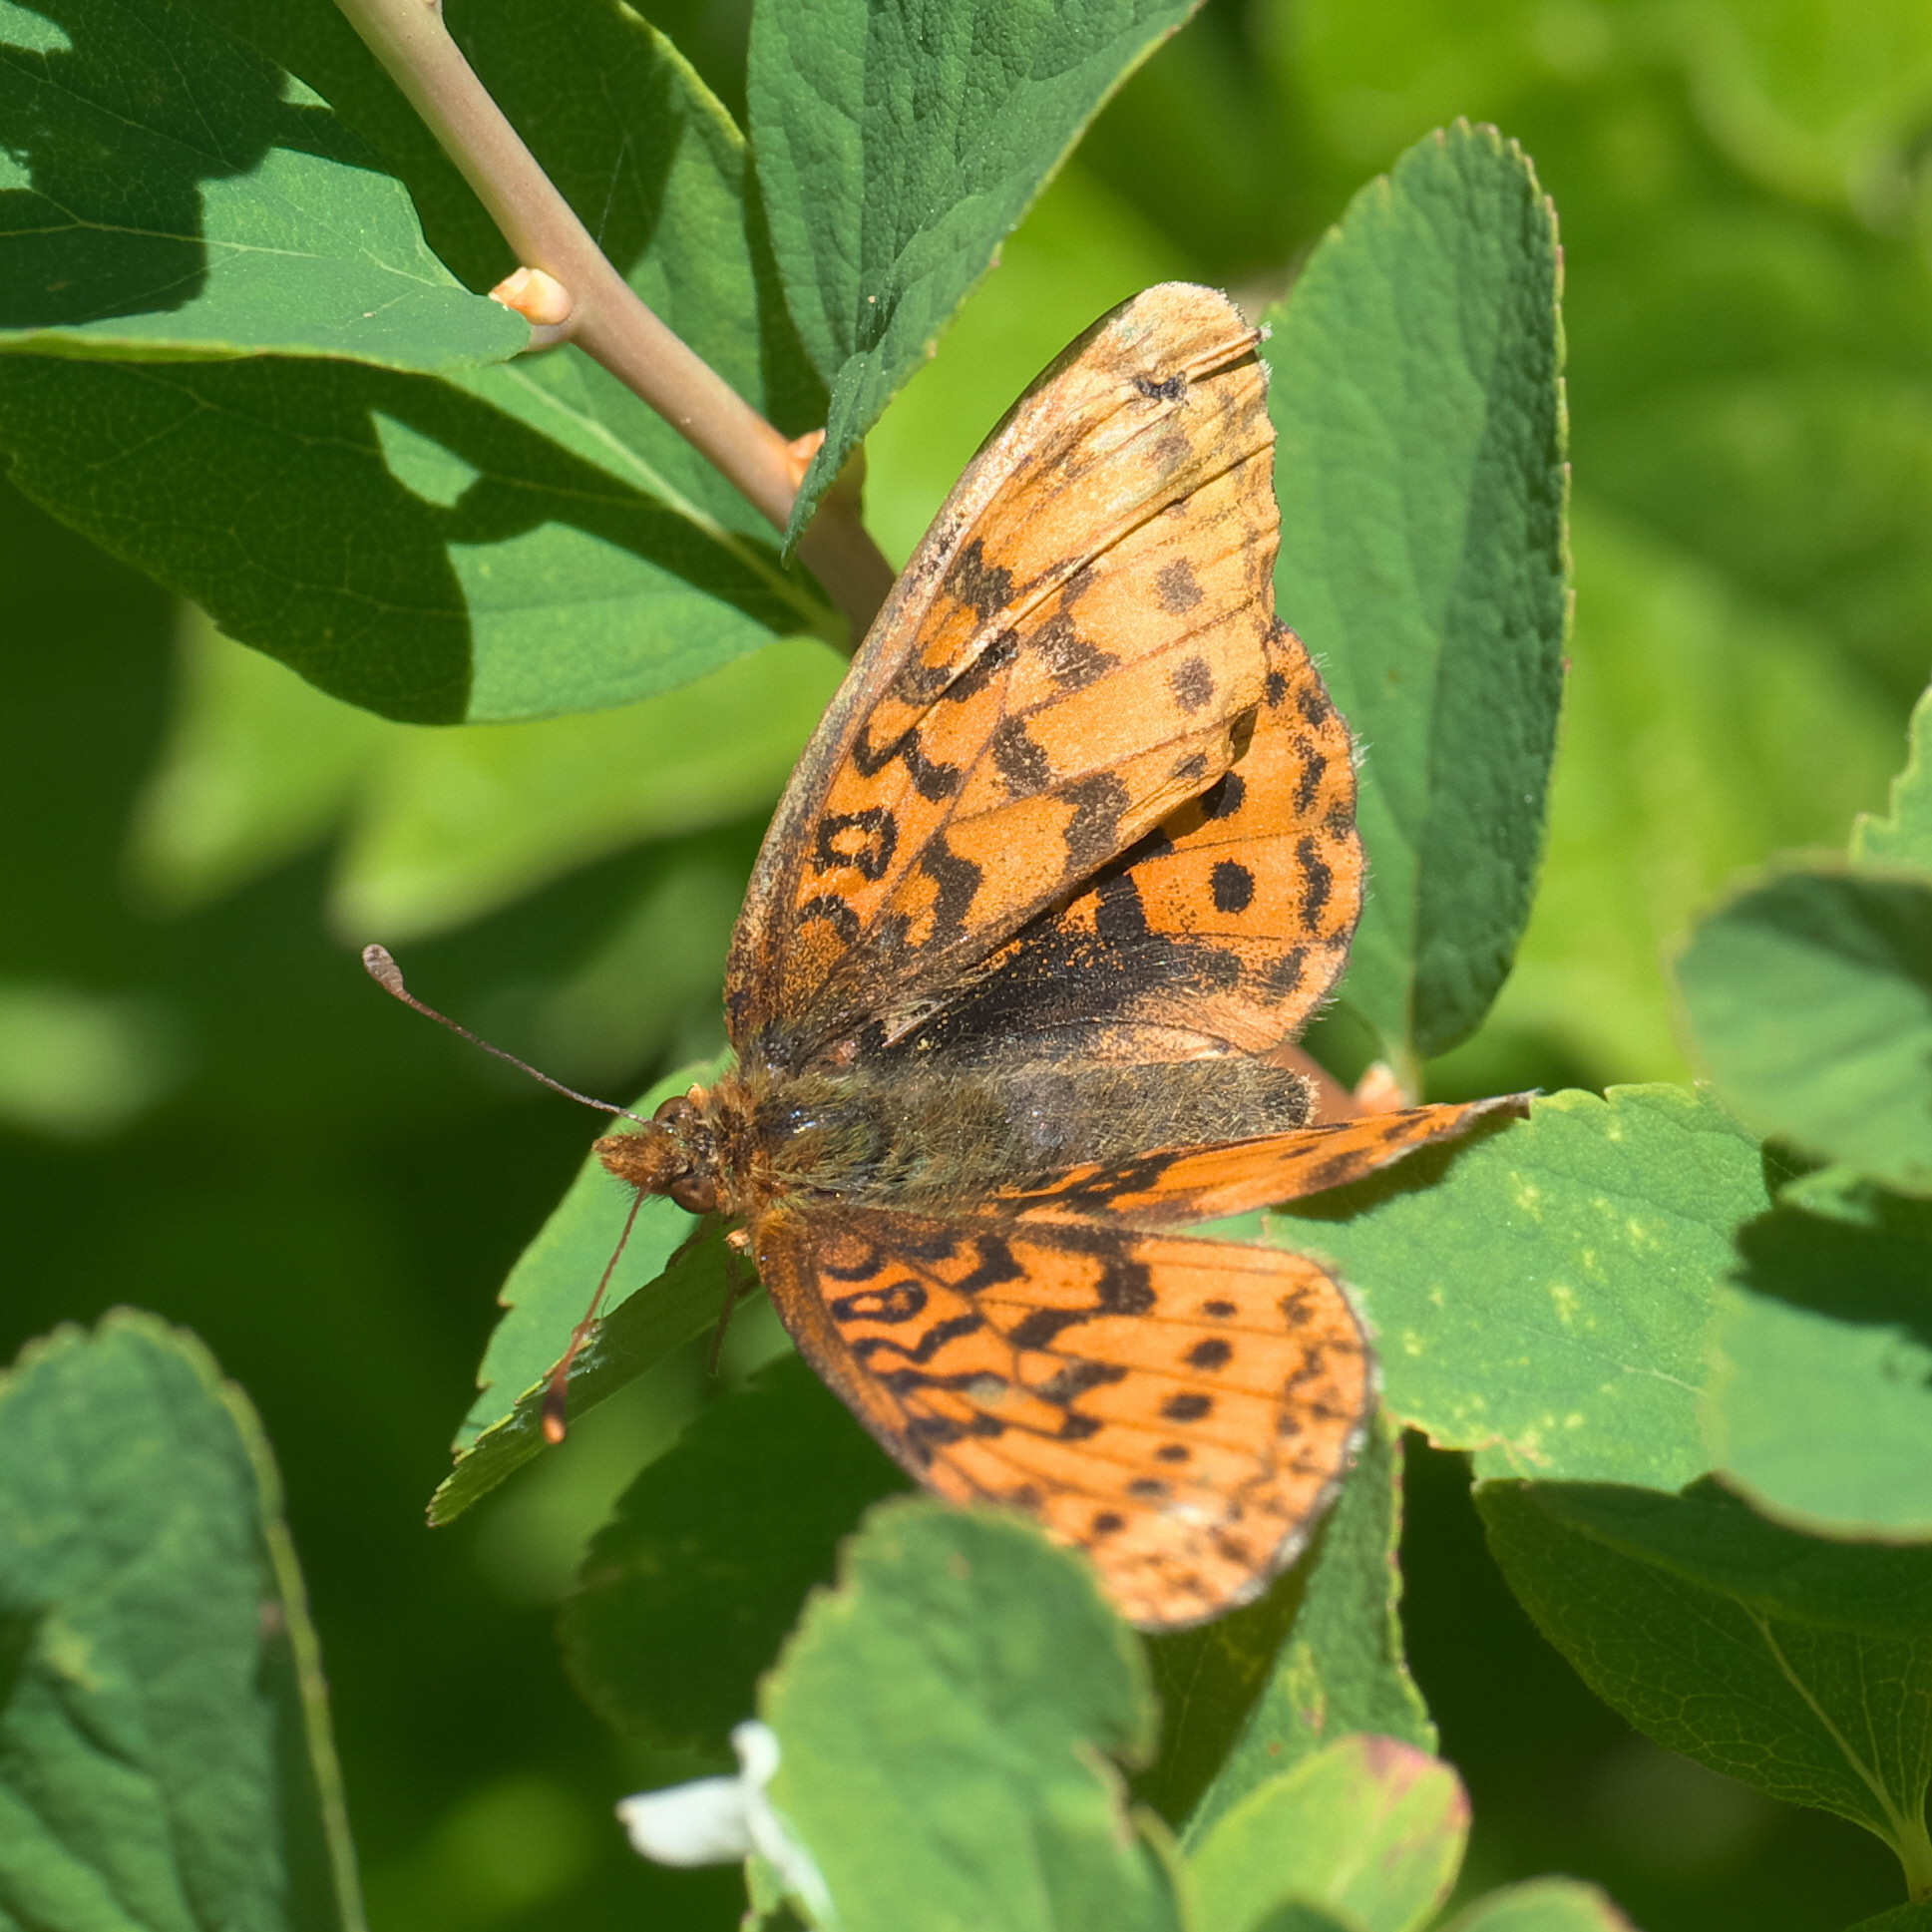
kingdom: Animalia
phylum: Arthropoda
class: Insecta
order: Lepidoptera
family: Nymphalidae
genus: Boloria
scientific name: Boloria epithore
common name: Pacific fritillary
